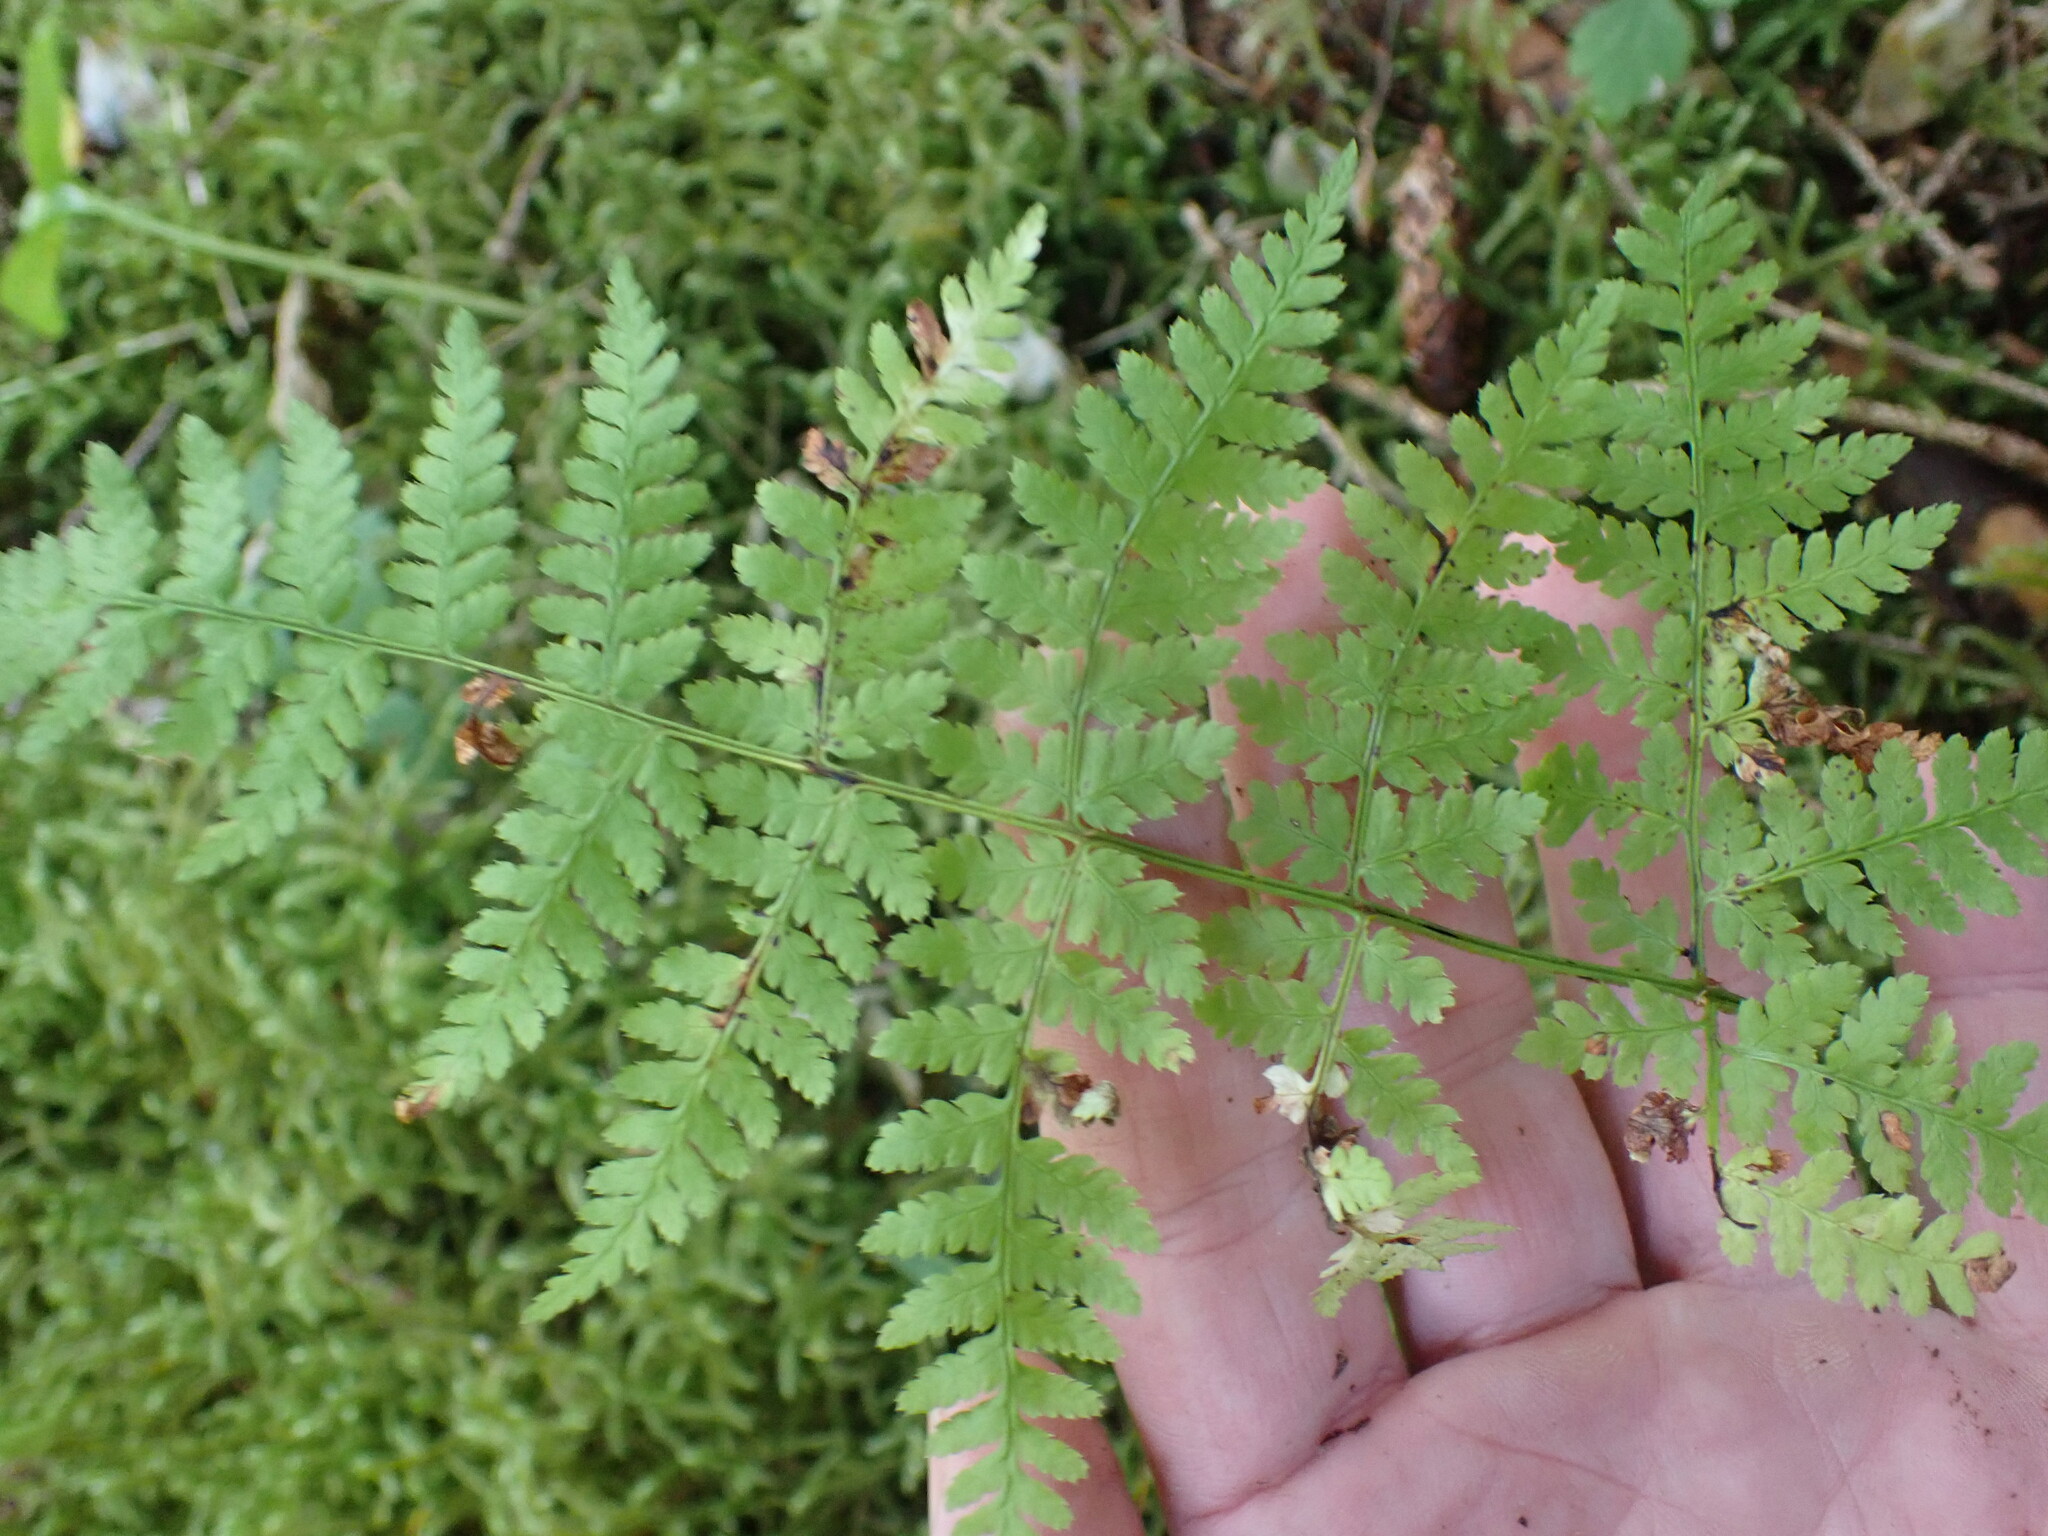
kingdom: Plantae
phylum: Tracheophyta
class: Polypodiopsida
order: Polypodiales
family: Dryopteridaceae
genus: Dryopteris
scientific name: Dryopteris expansa
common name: Northern buckler fern
